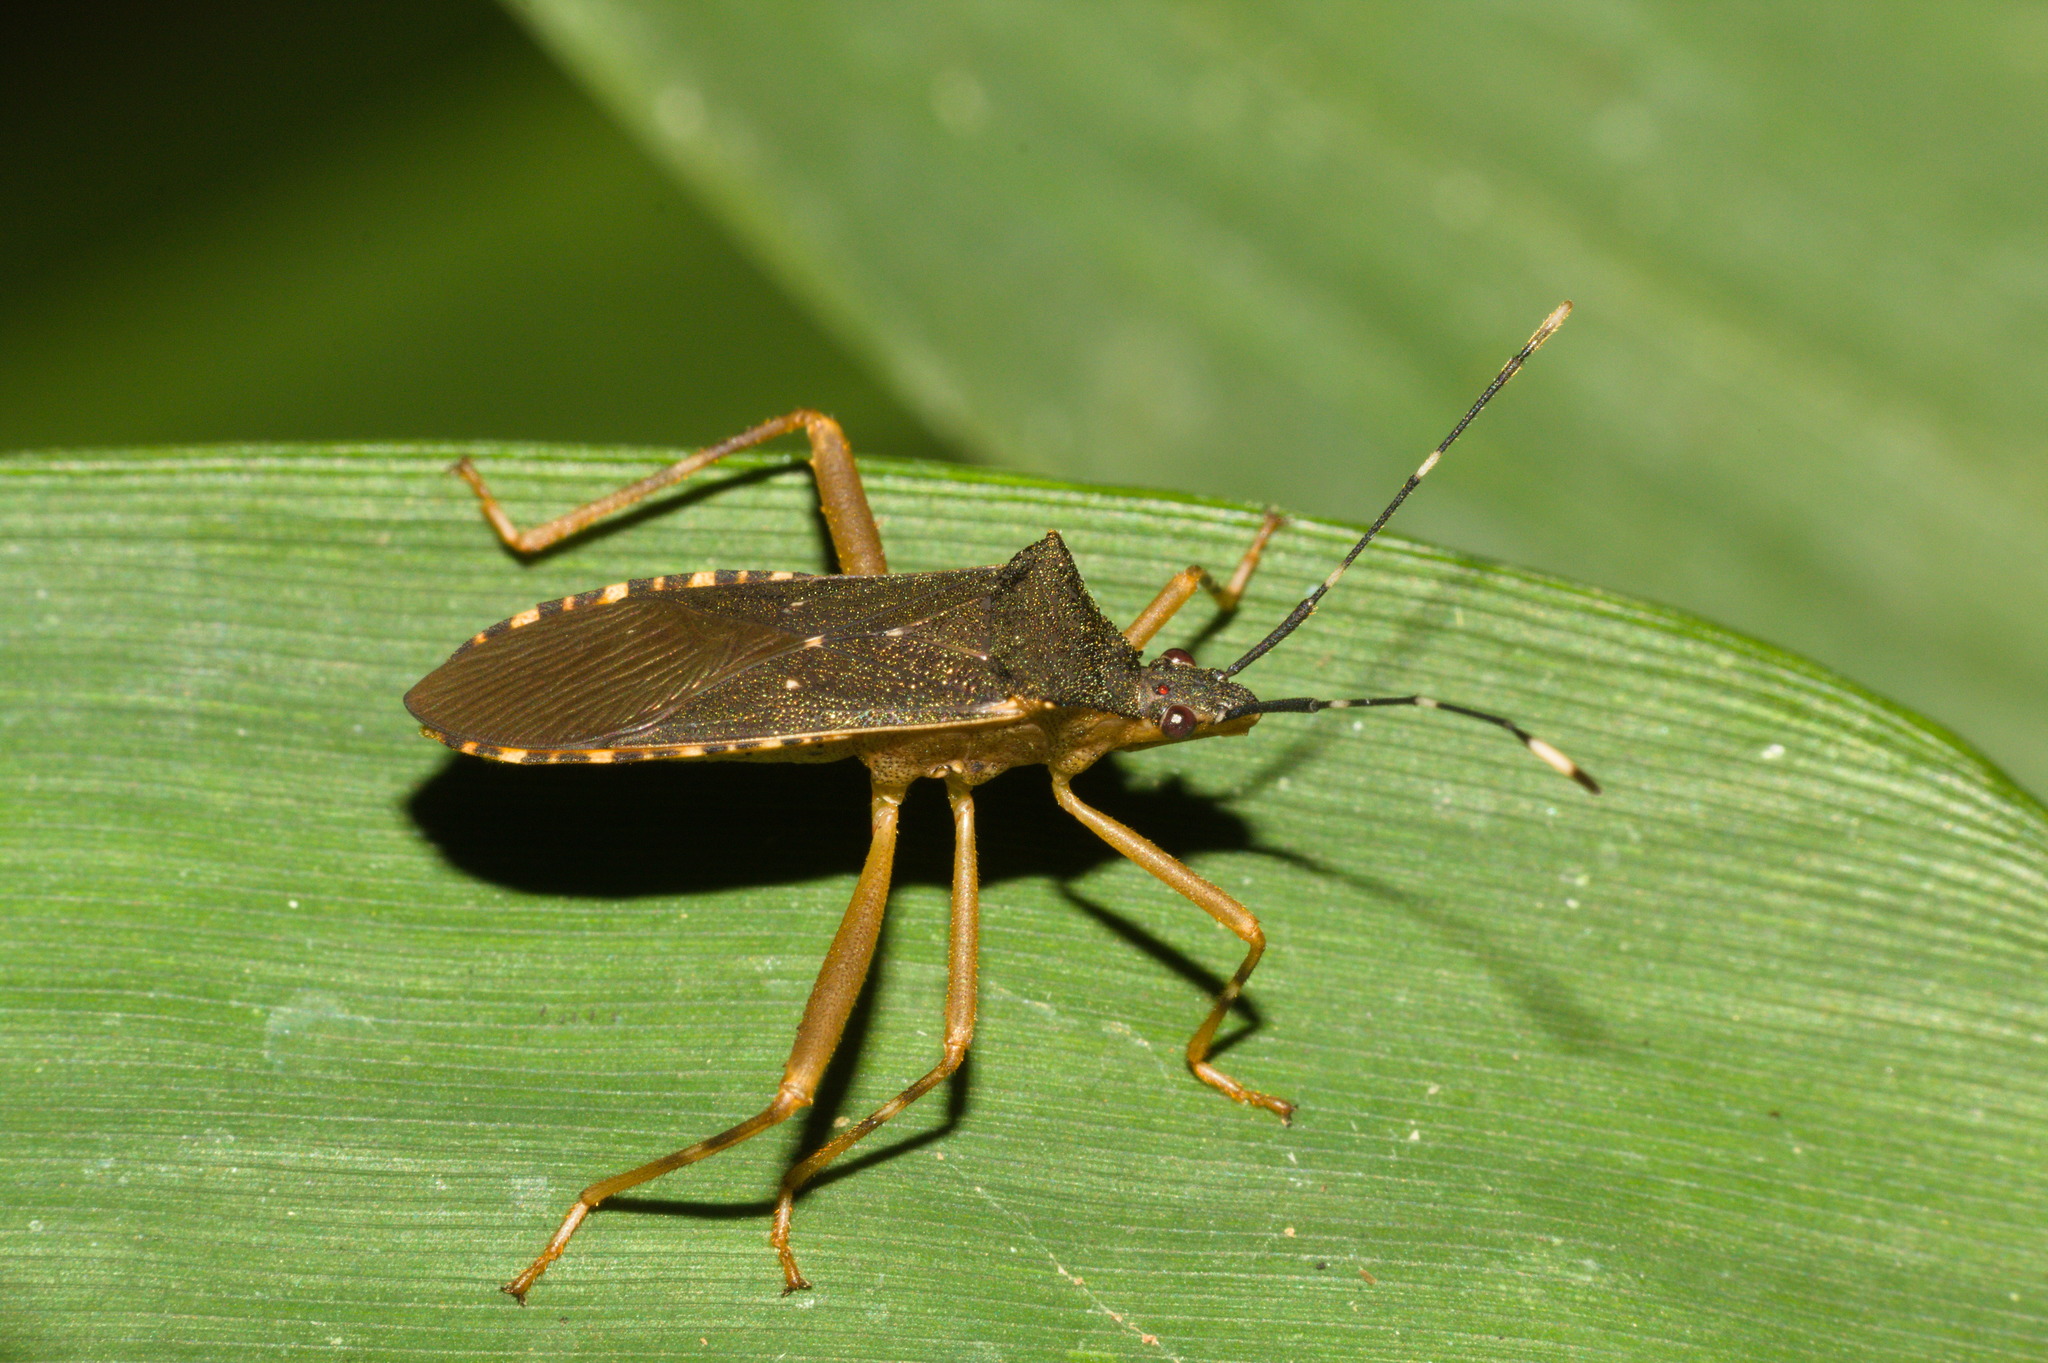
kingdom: Animalia
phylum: Arthropoda
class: Insecta
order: Hemiptera
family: Coreidae
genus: Leptoscelis
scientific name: Leptoscelis elongator
